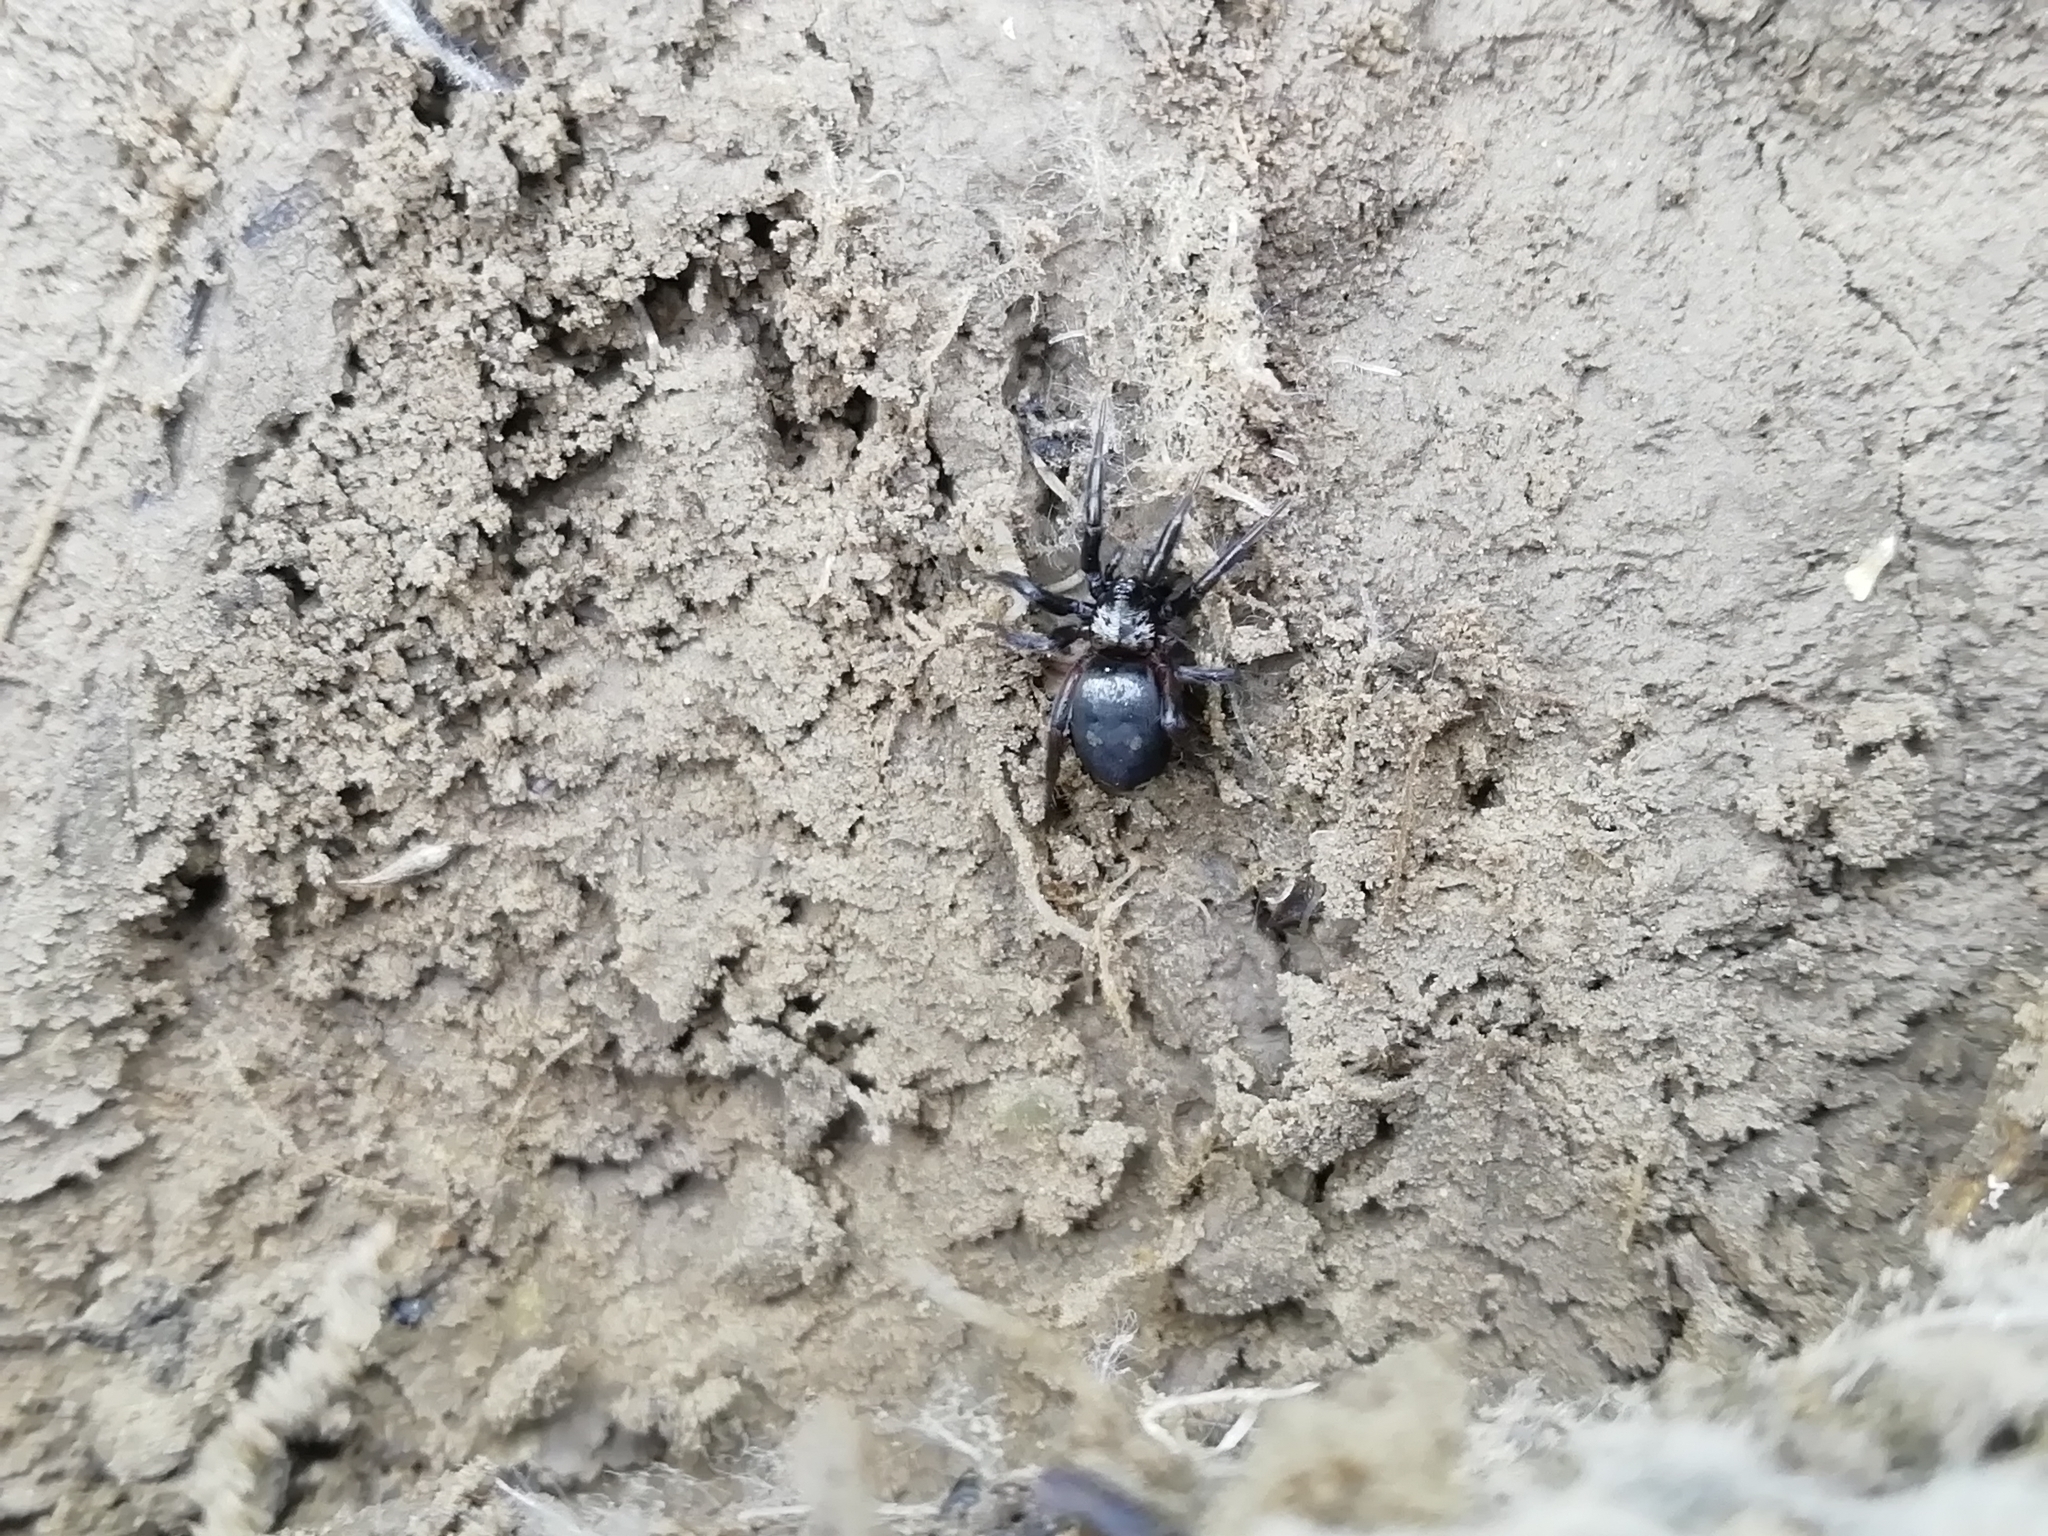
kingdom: Animalia
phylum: Arthropoda
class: Arachnida
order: Araneae
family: Gnaphosidae
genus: Callilepis
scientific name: Callilepis nocturna
